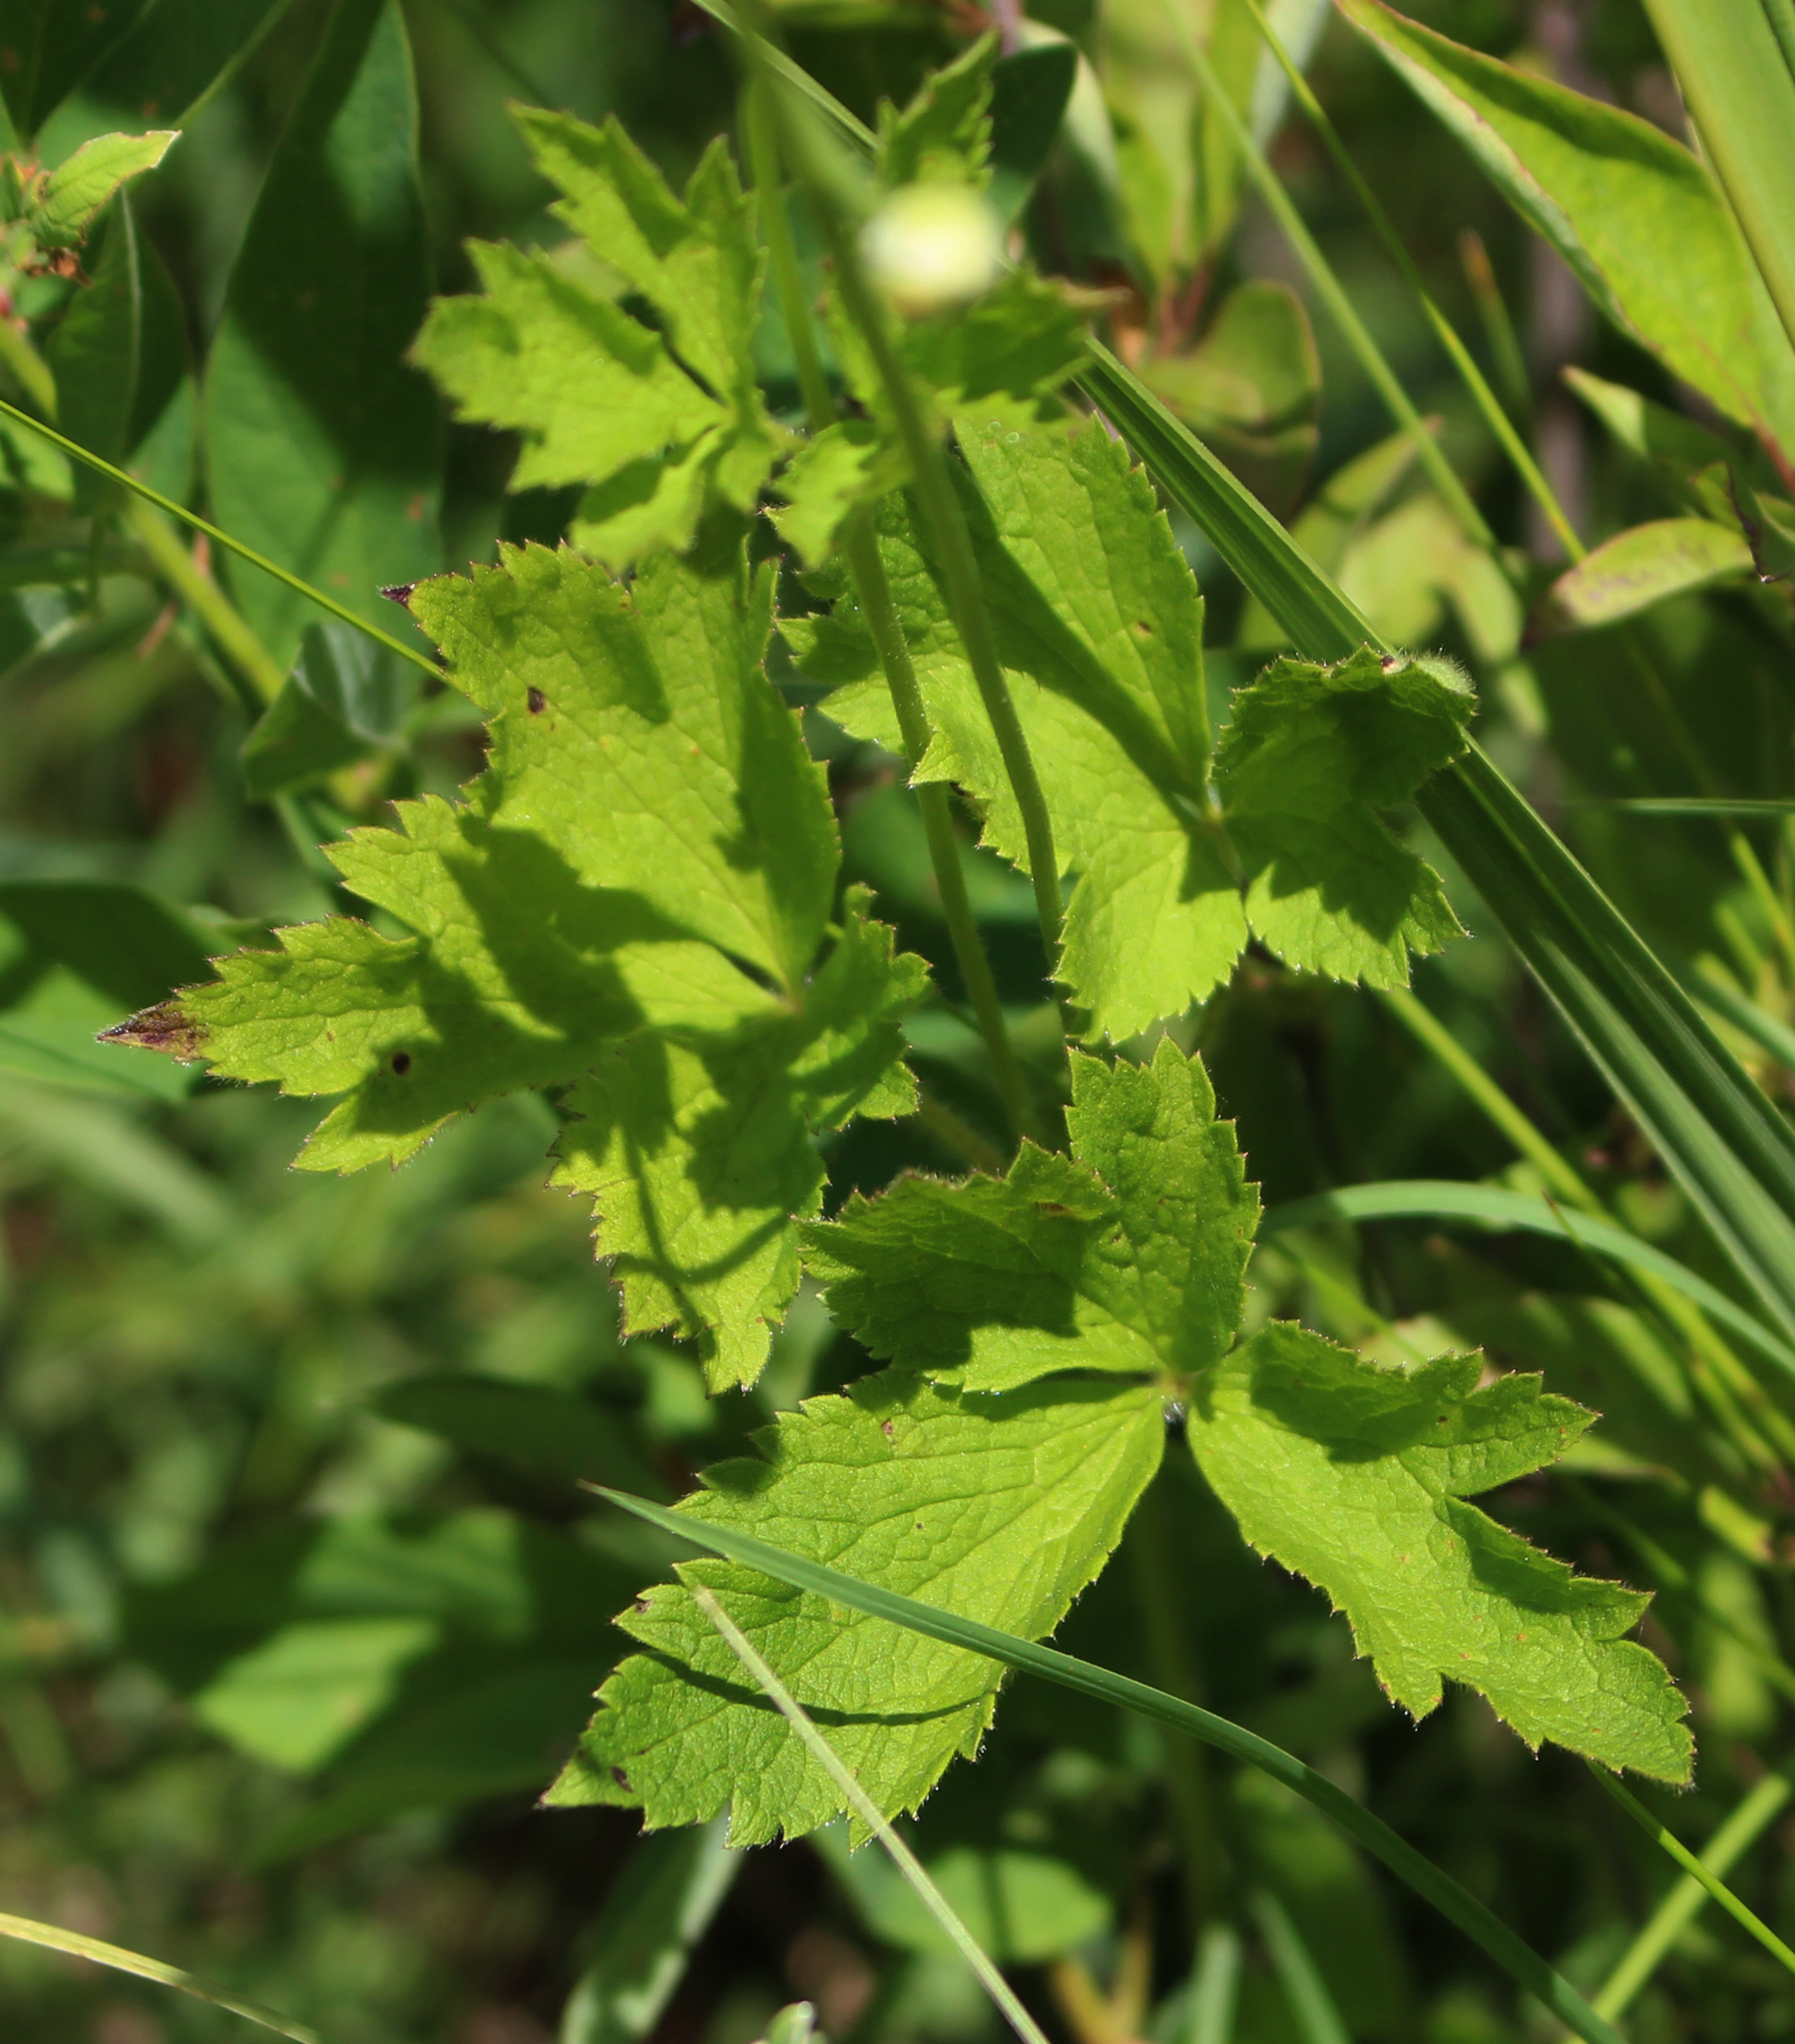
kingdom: Plantae
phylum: Tracheophyta
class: Magnoliopsida
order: Ranunculales
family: Ranunculaceae
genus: Anemone
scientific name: Anemone virginiana
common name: Tall anemone
